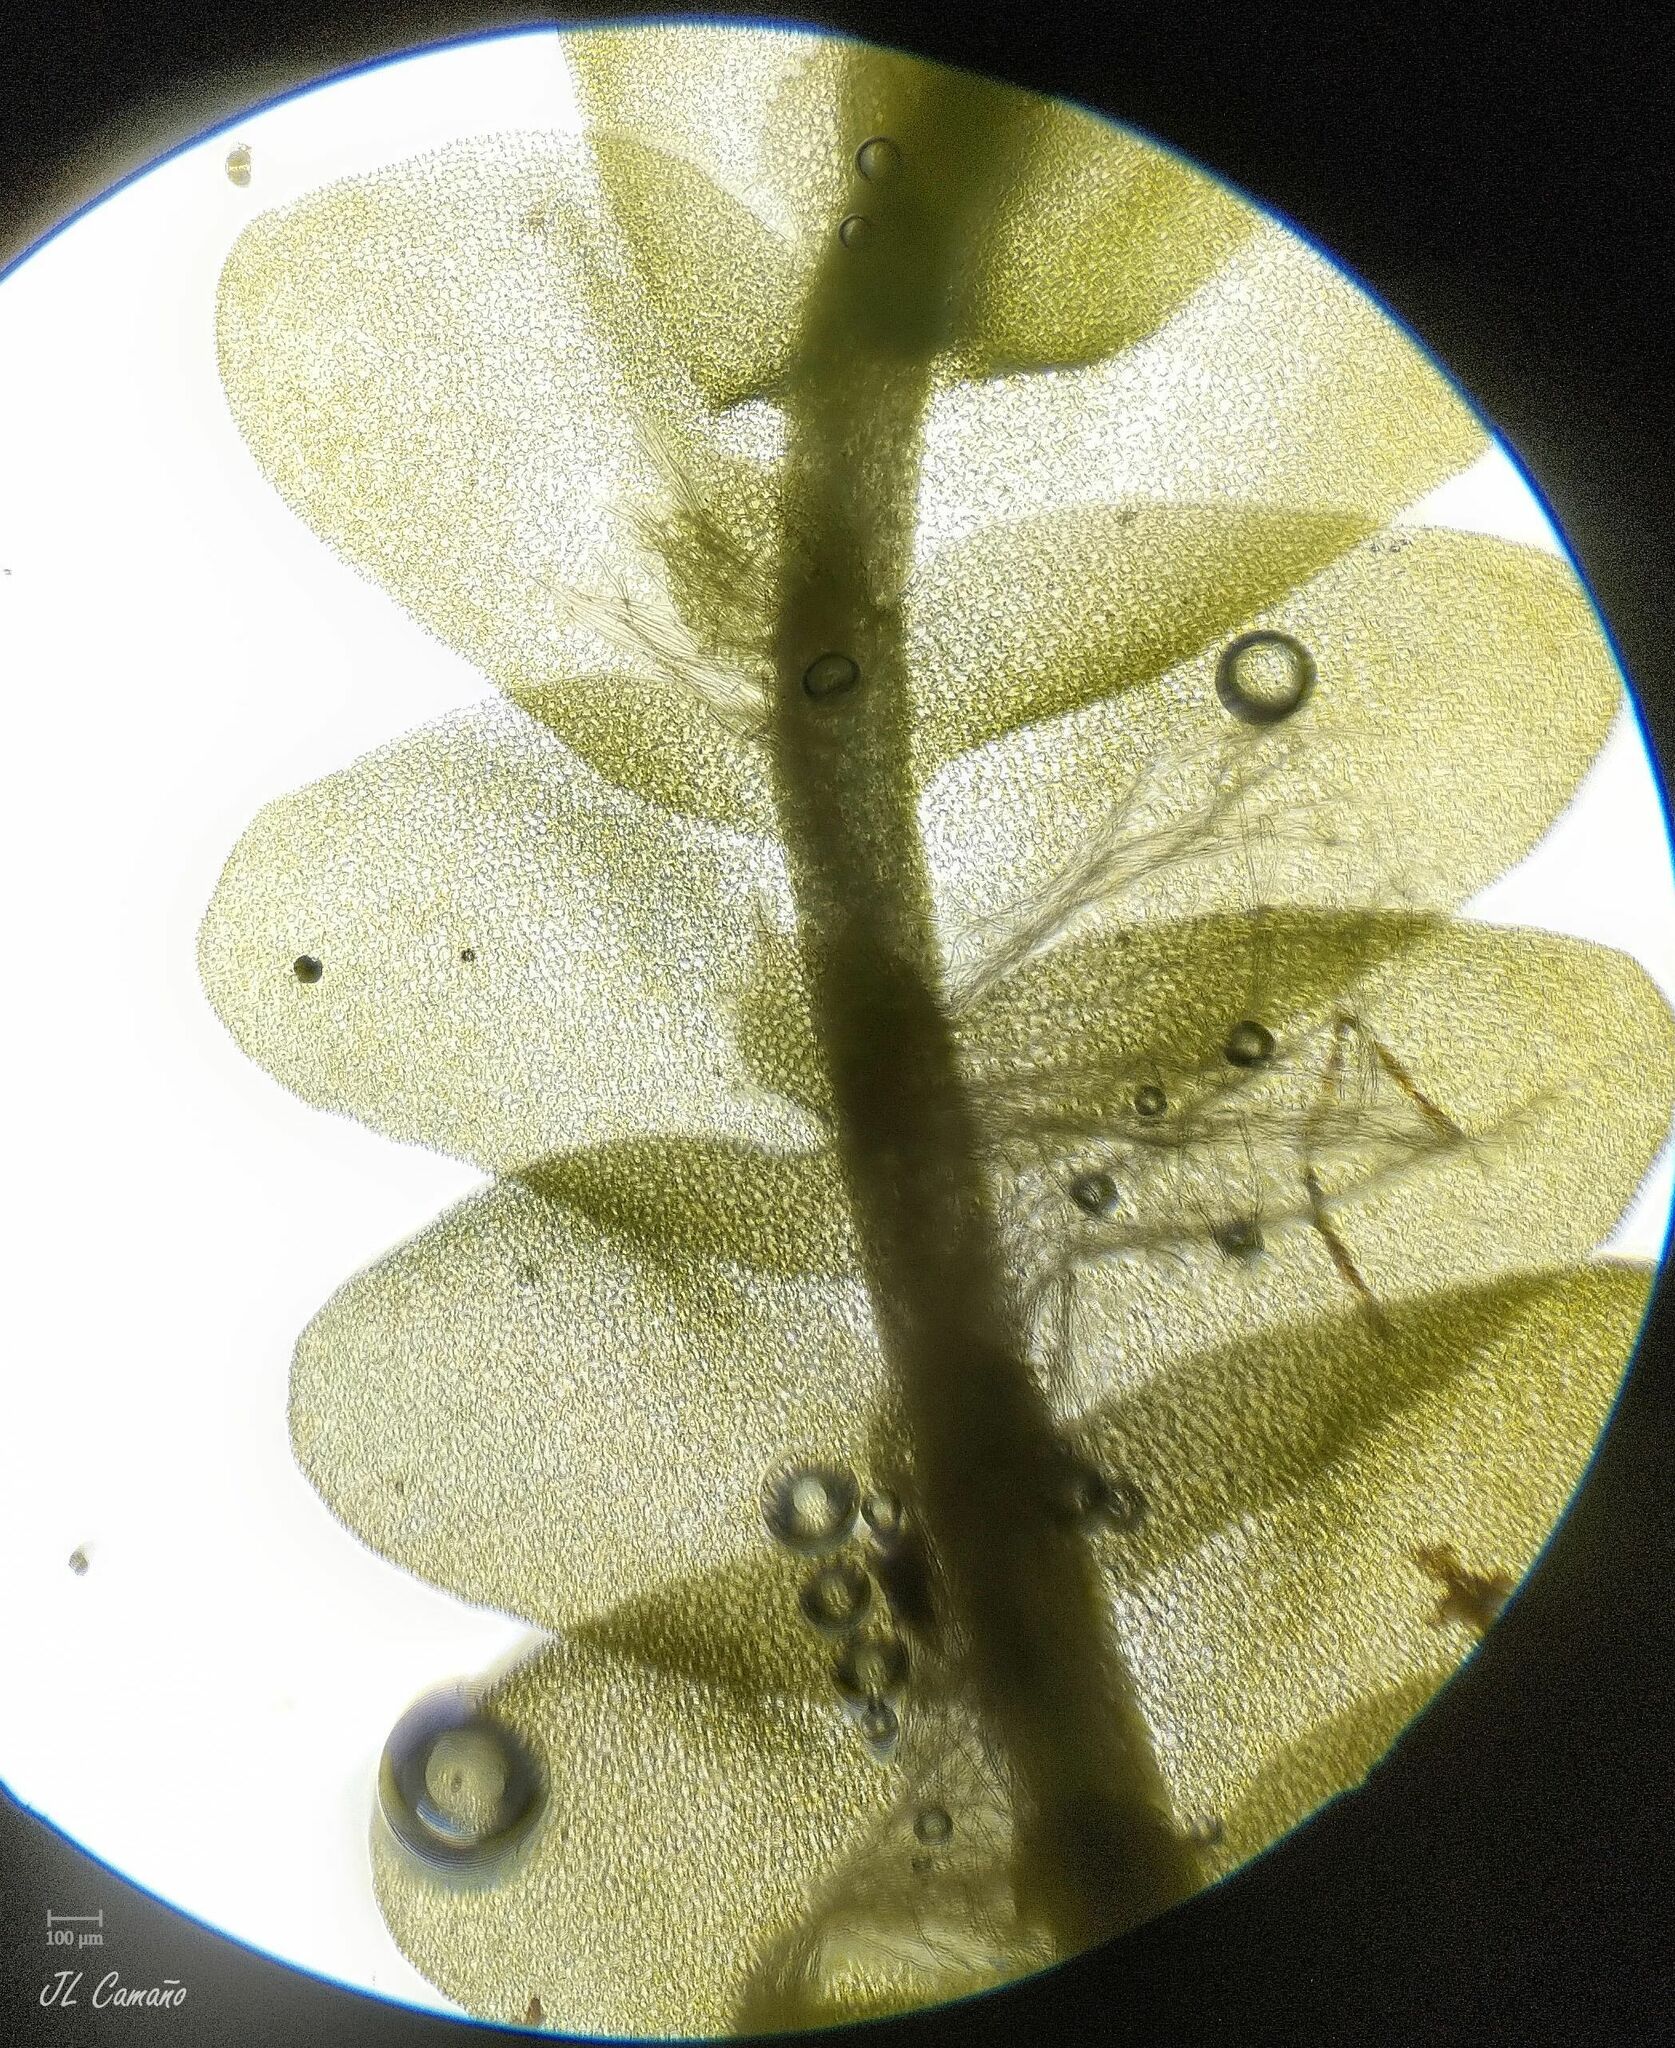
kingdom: Plantae
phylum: Marchantiophyta
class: Jungermanniopsida
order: Jungermanniales
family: Saccogynaceae
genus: Saccogyna
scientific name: Saccogyna viticulosa
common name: Straggling pouchwort
